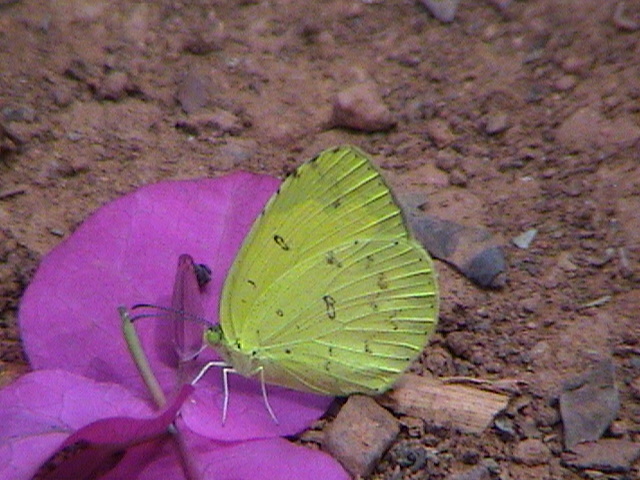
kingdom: Animalia
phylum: Arthropoda
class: Insecta
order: Lepidoptera
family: Pieridae
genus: Eurema
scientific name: Eurema hecabe
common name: Pale grass yellow
